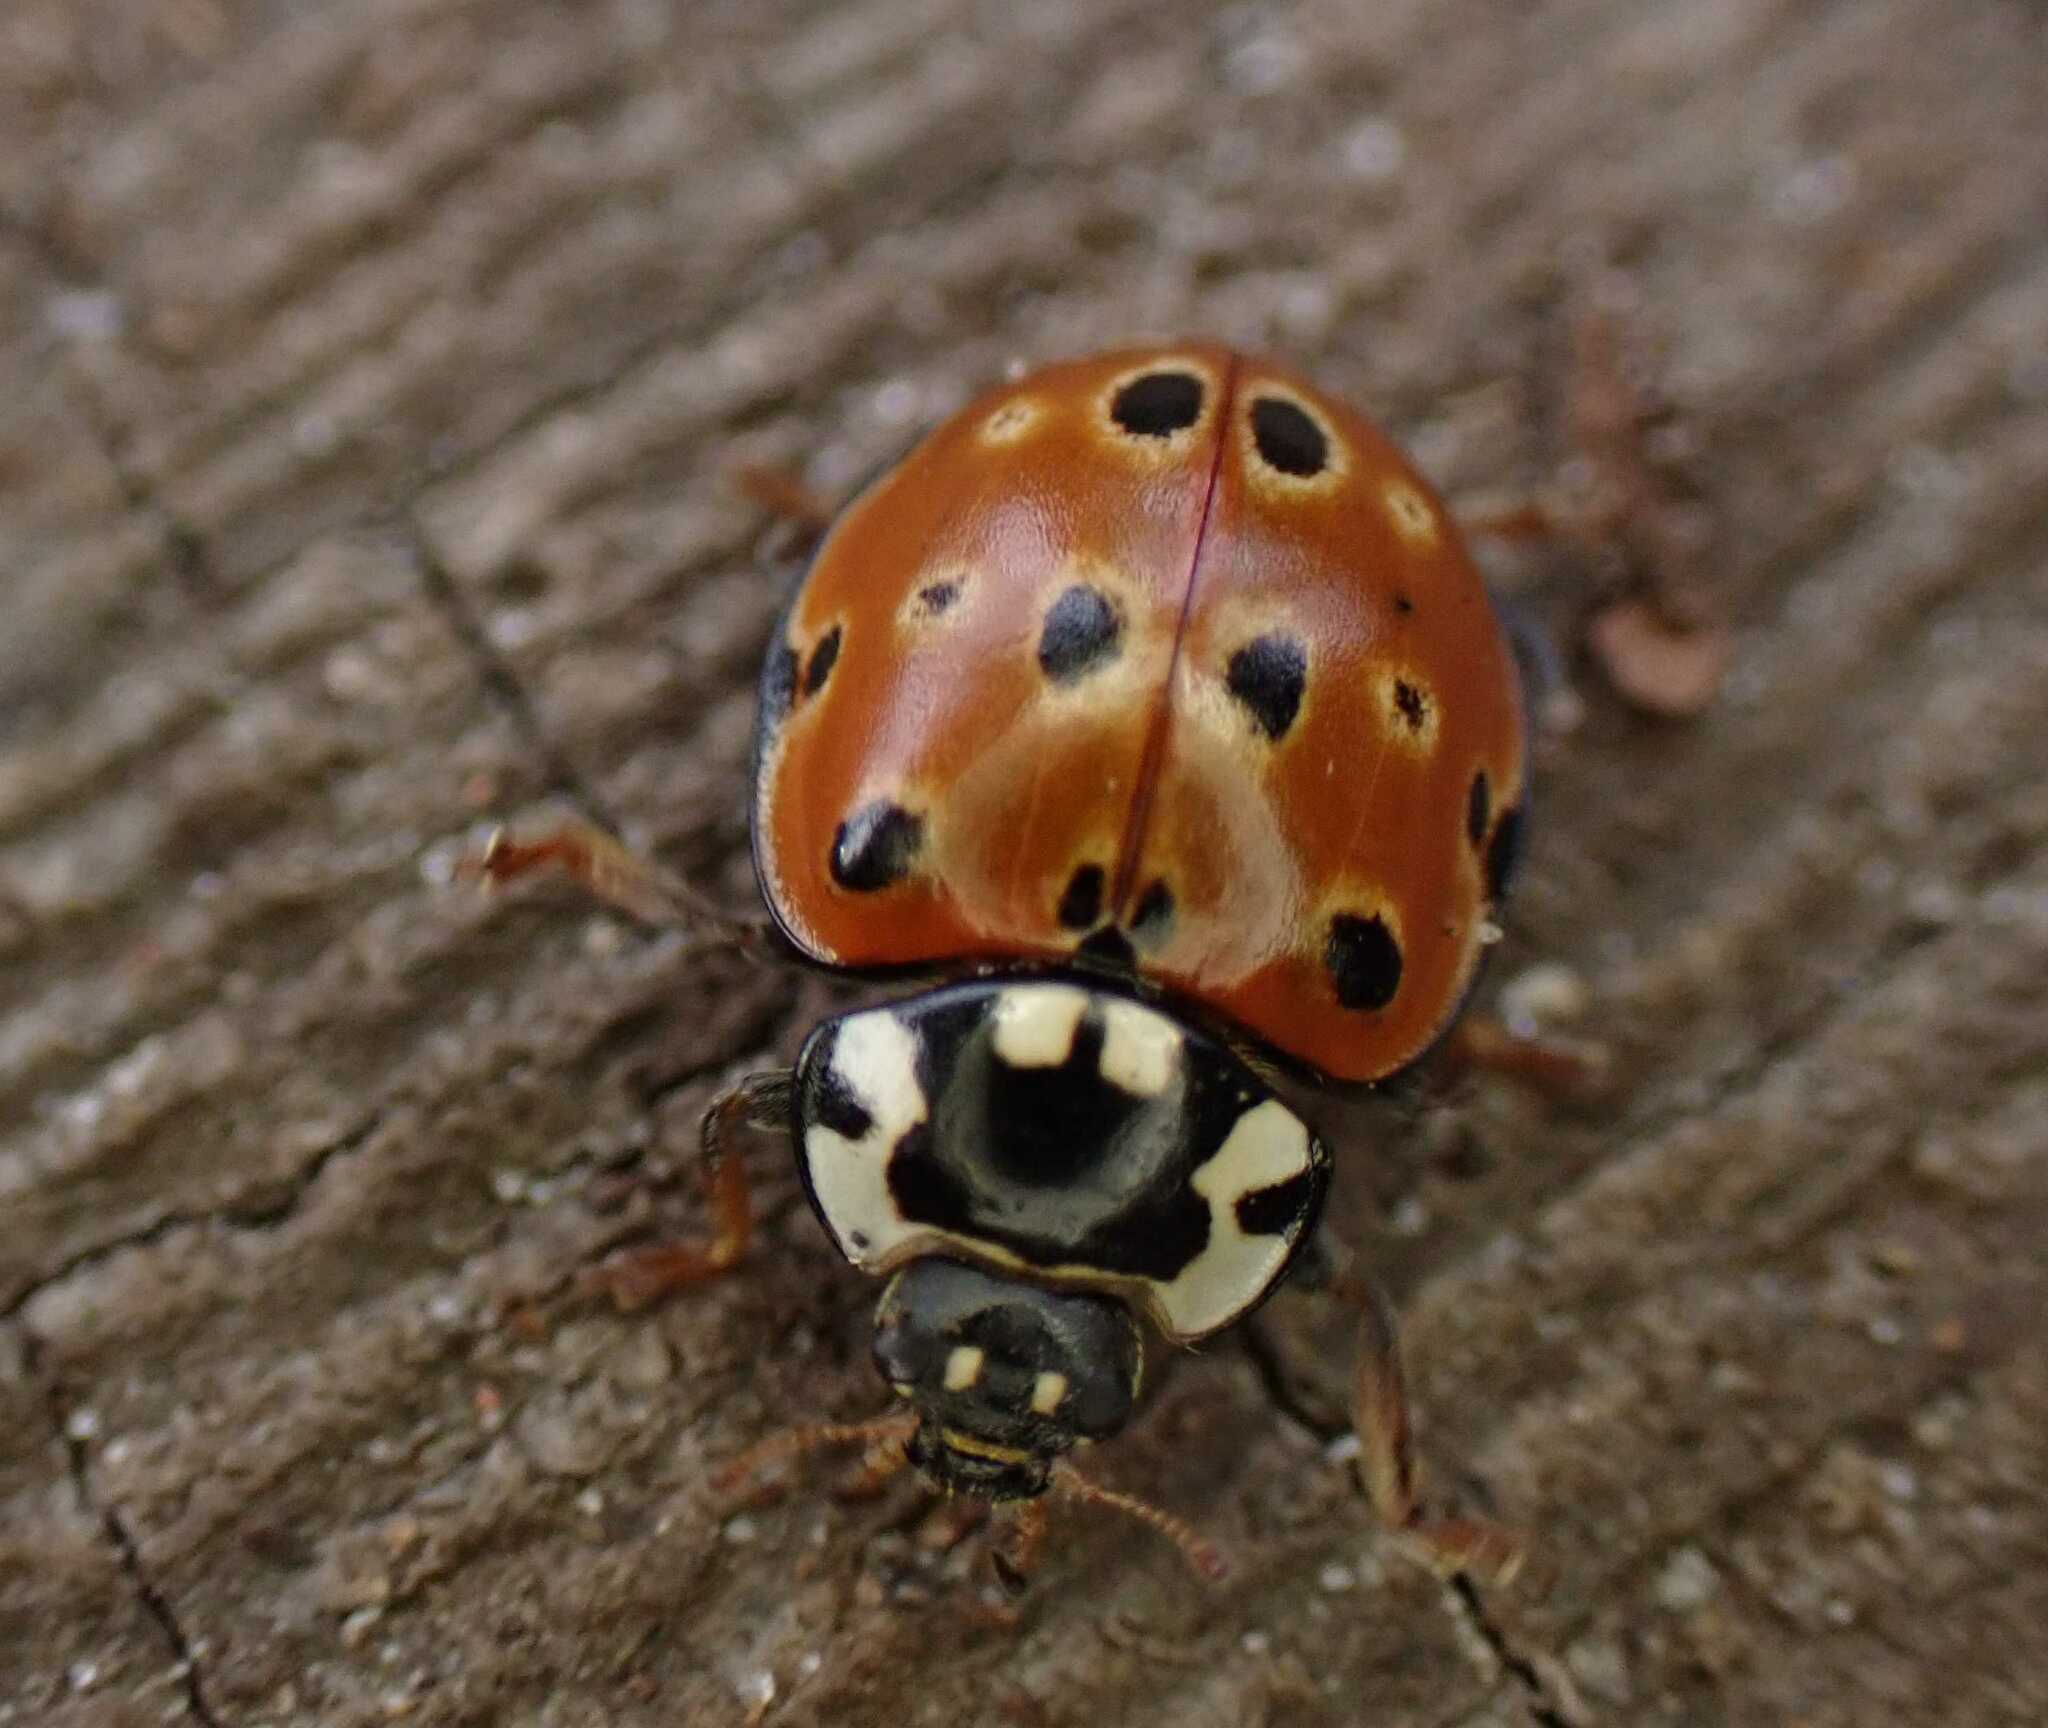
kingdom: Animalia
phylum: Arthropoda
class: Insecta
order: Coleoptera
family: Coccinellidae
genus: Anatis
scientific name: Anatis ocellata
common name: Eyed ladybird
